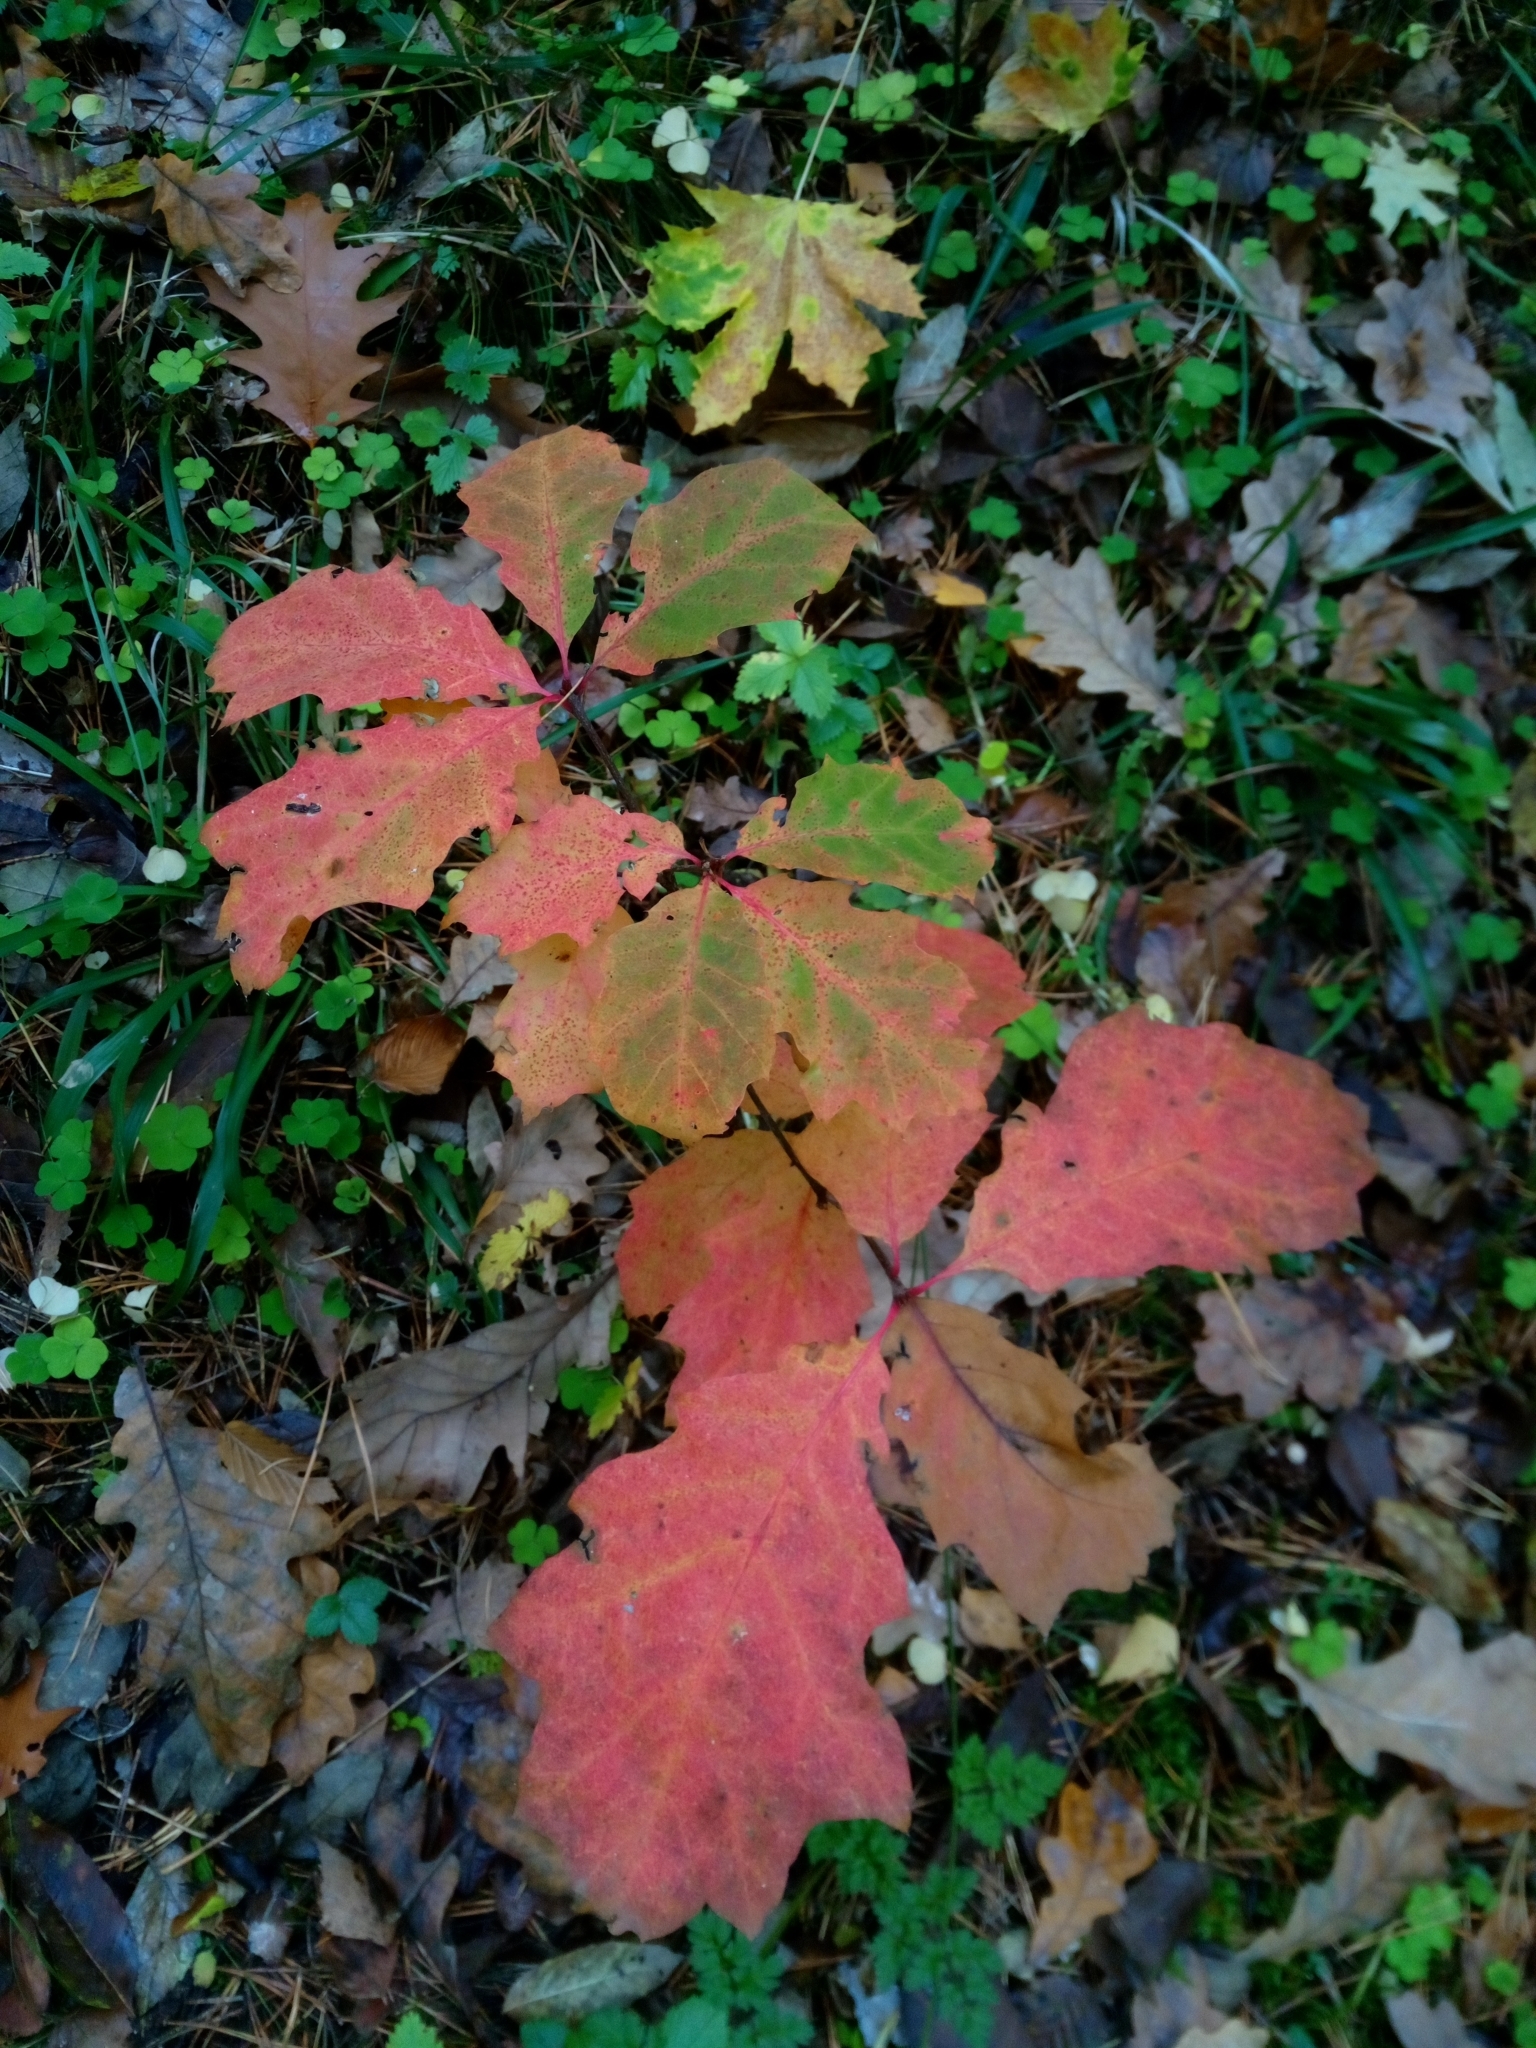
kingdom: Plantae
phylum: Tracheophyta
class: Magnoliopsida
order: Fagales
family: Fagaceae
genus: Quercus
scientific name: Quercus rubra
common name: Red oak
